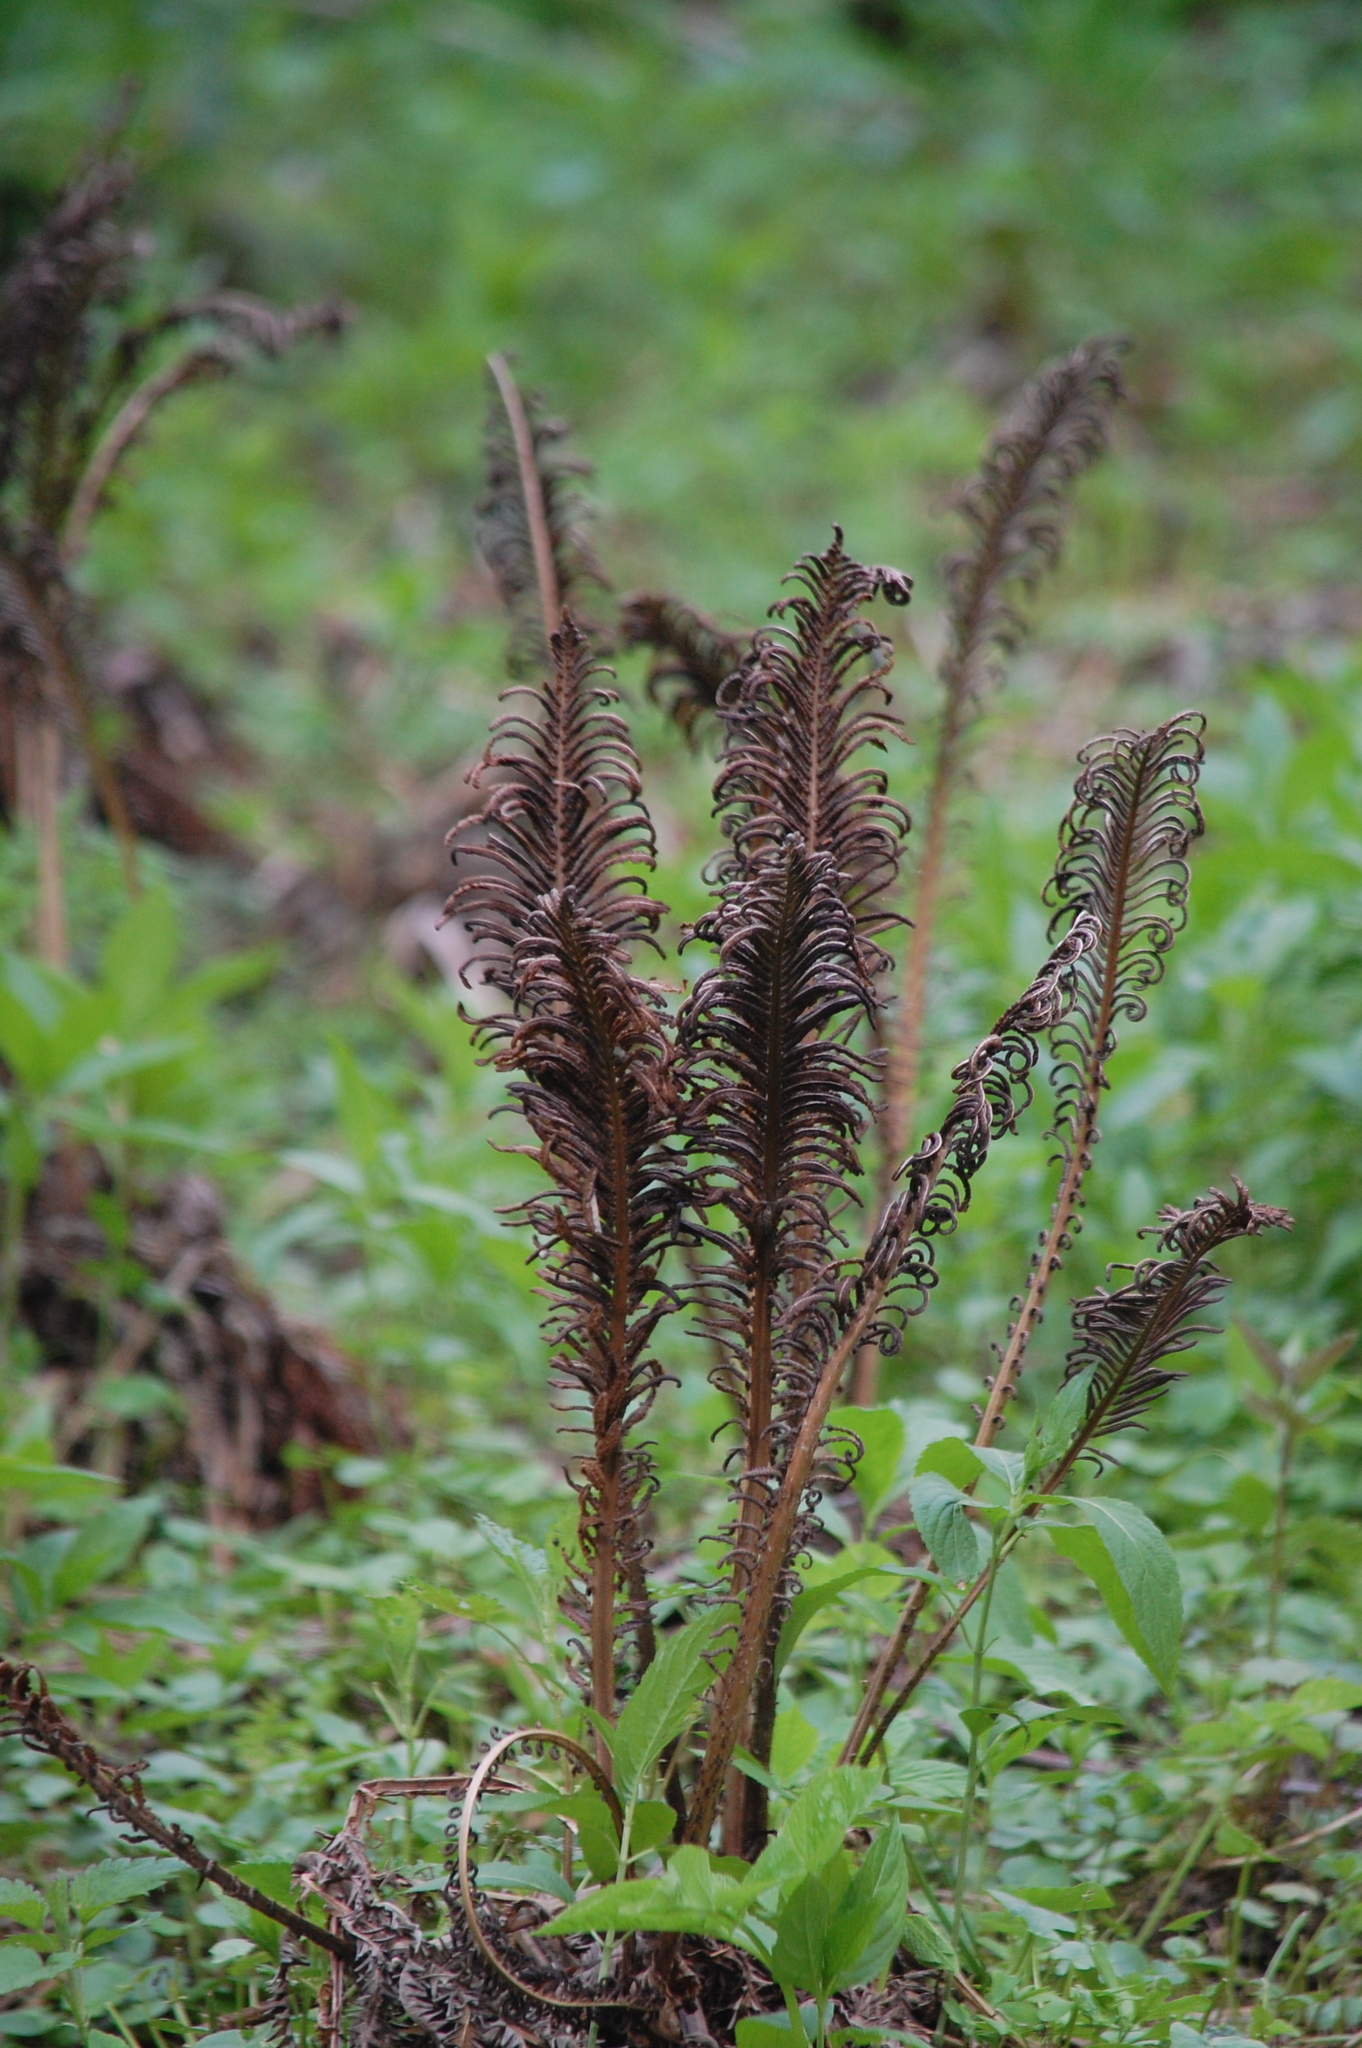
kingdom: Plantae
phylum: Tracheophyta
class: Polypodiopsida
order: Polypodiales
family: Onocleaceae
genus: Matteuccia
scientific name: Matteuccia struthiopteris
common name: Ostrich fern
